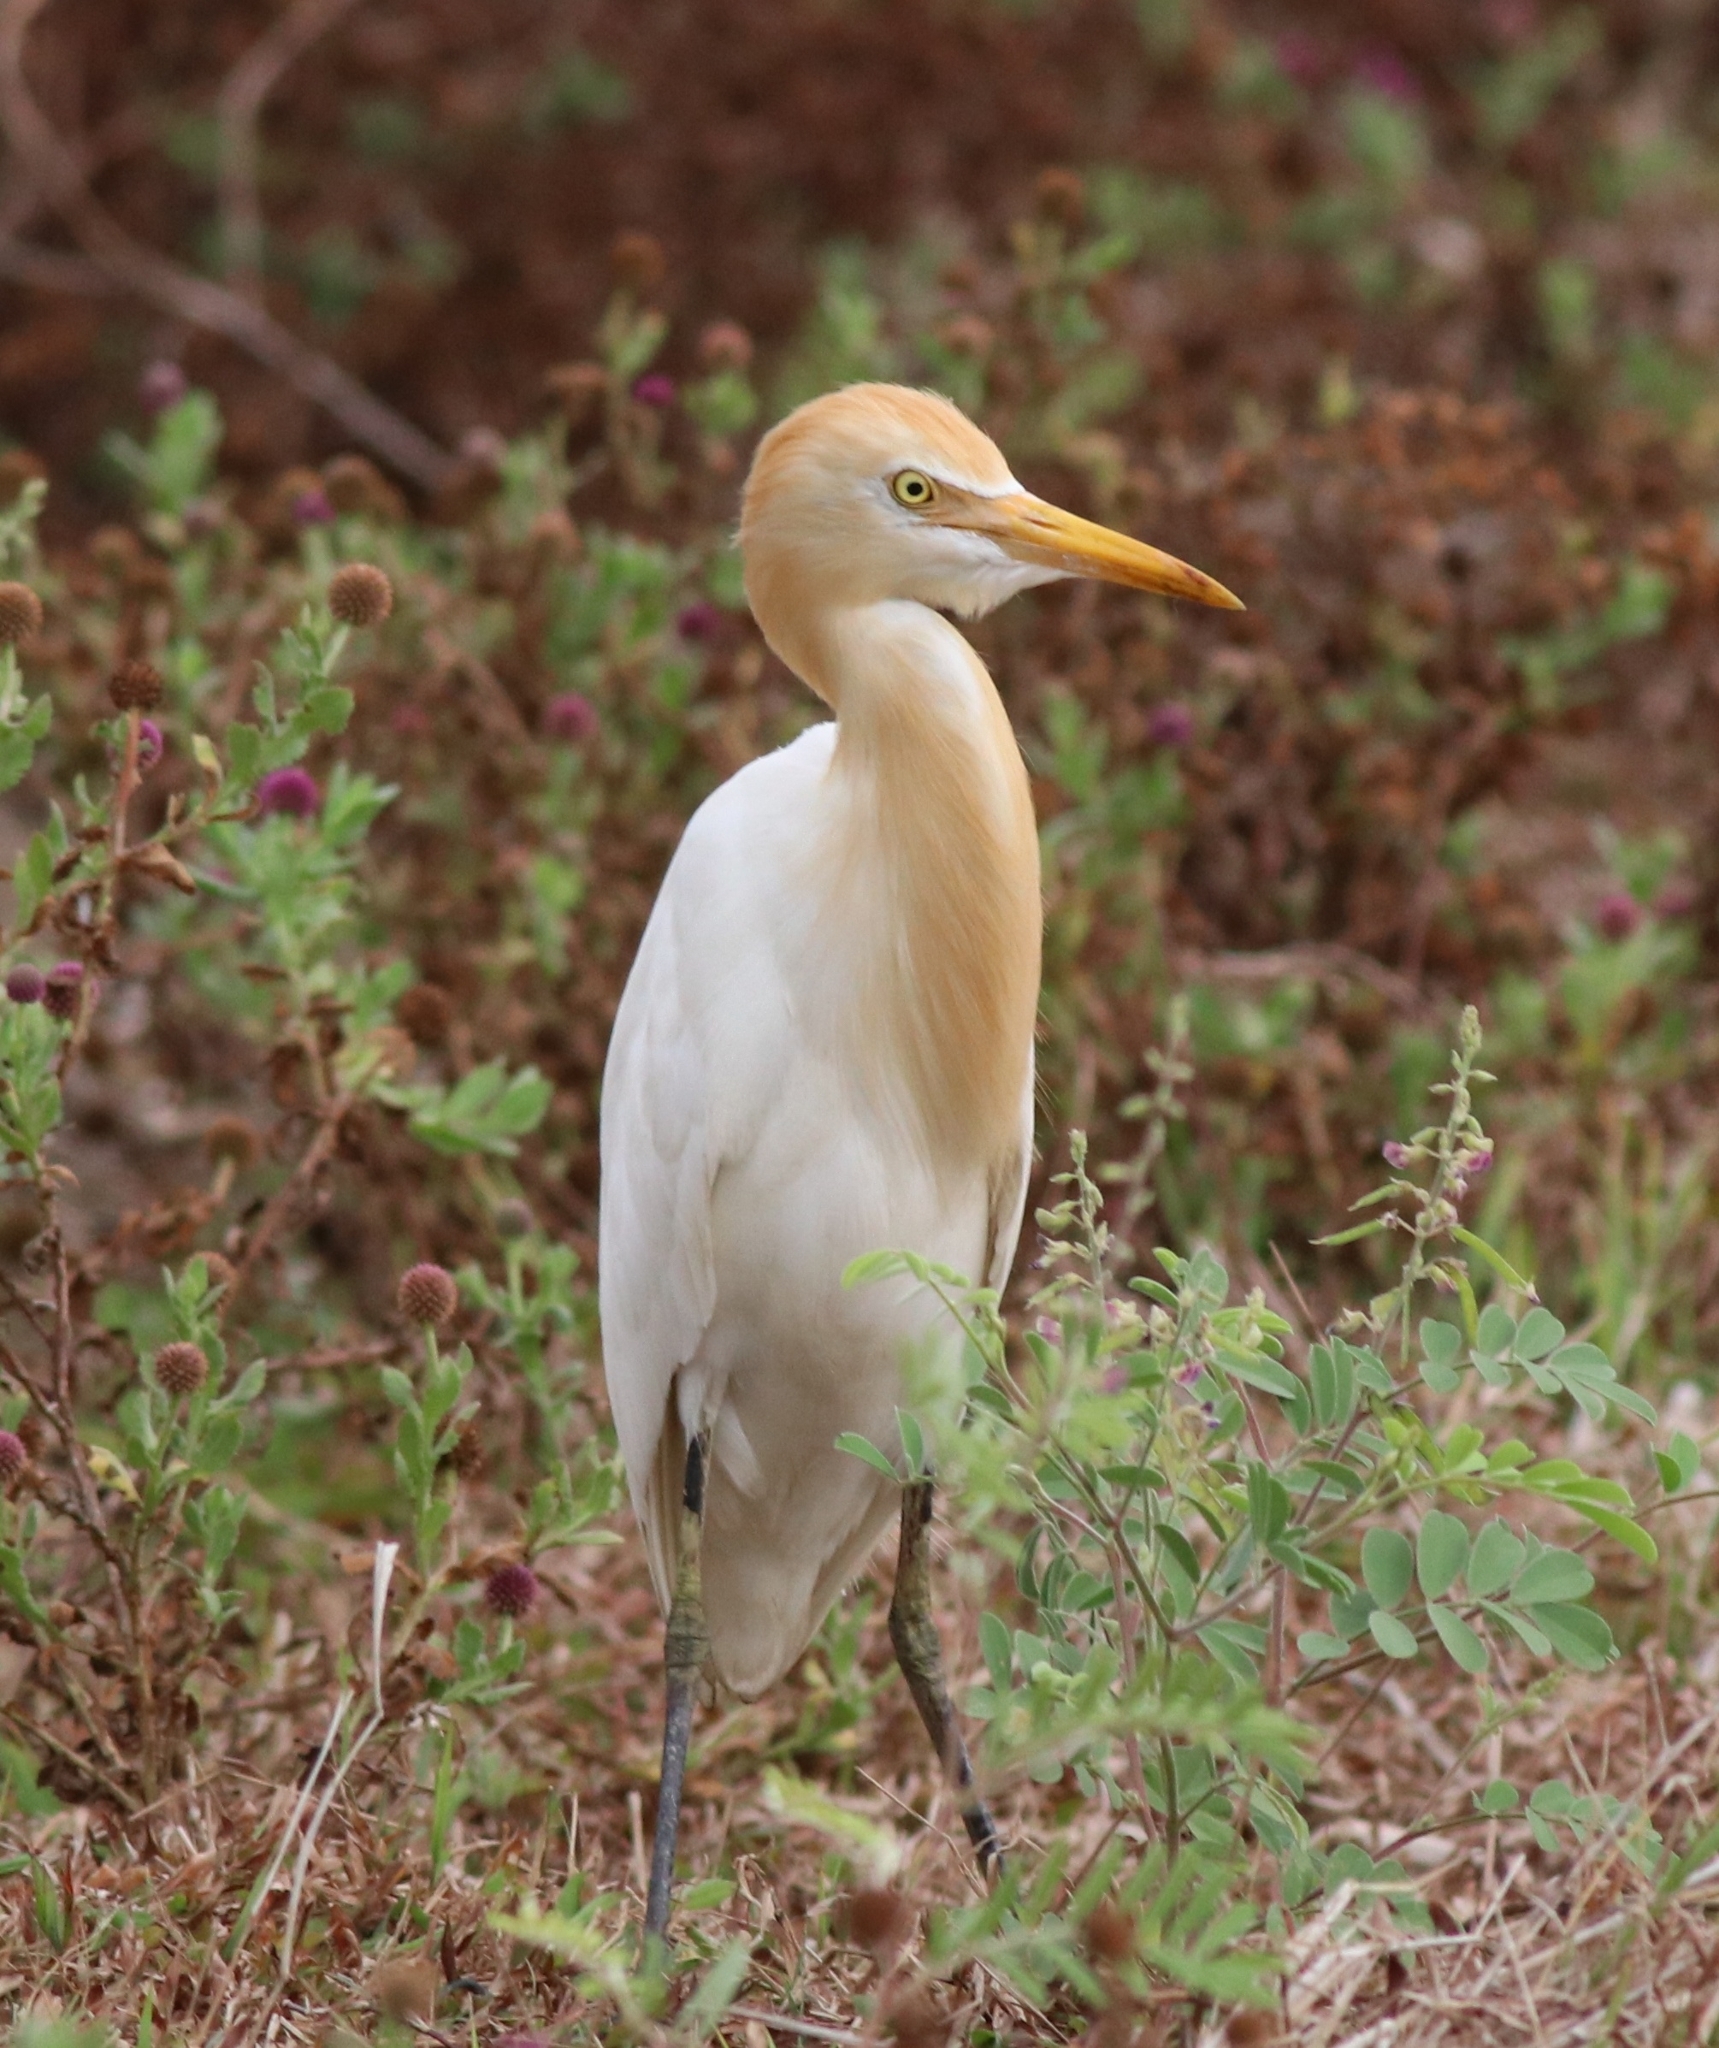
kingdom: Animalia
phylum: Chordata
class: Aves
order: Pelecaniformes
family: Ardeidae
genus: Bubulcus
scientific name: Bubulcus coromandus
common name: Eastern cattle egret
